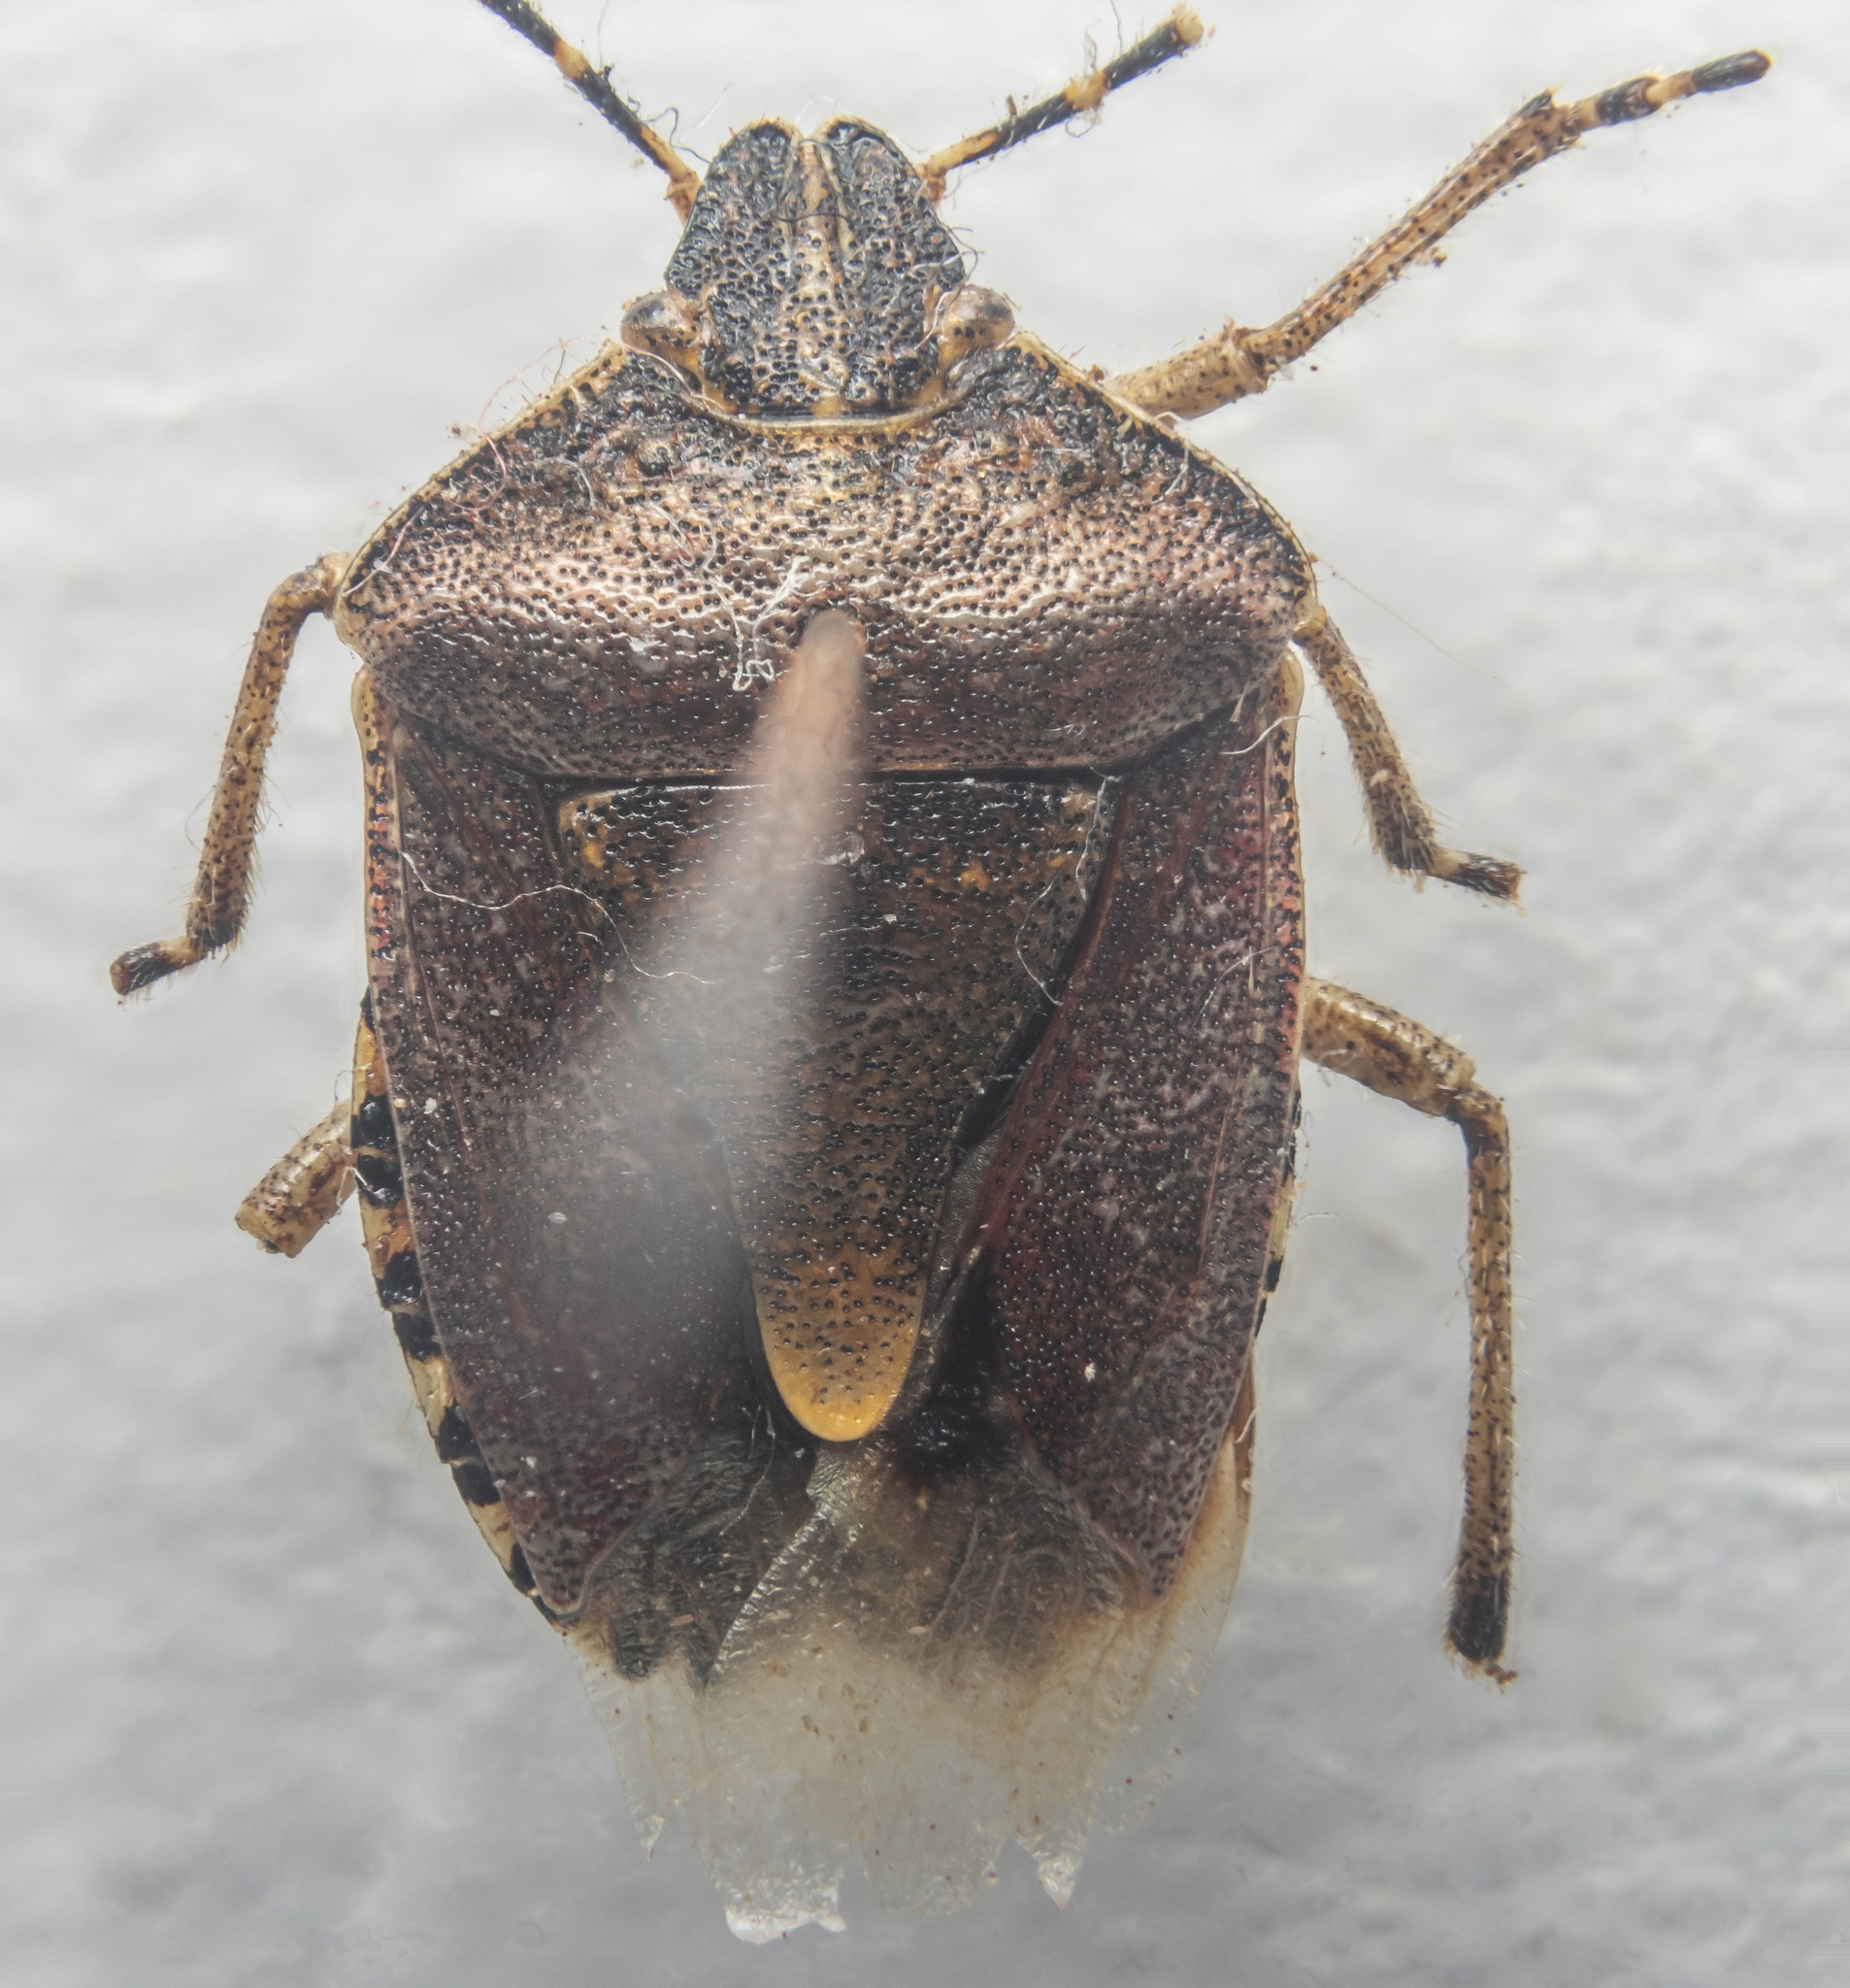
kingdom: Animalia
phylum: Arthropoda
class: Insecta
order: Hemiptera
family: Pentatomidae
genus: Dolycoris
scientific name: Dolycoris baccarum
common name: Sloe bug
